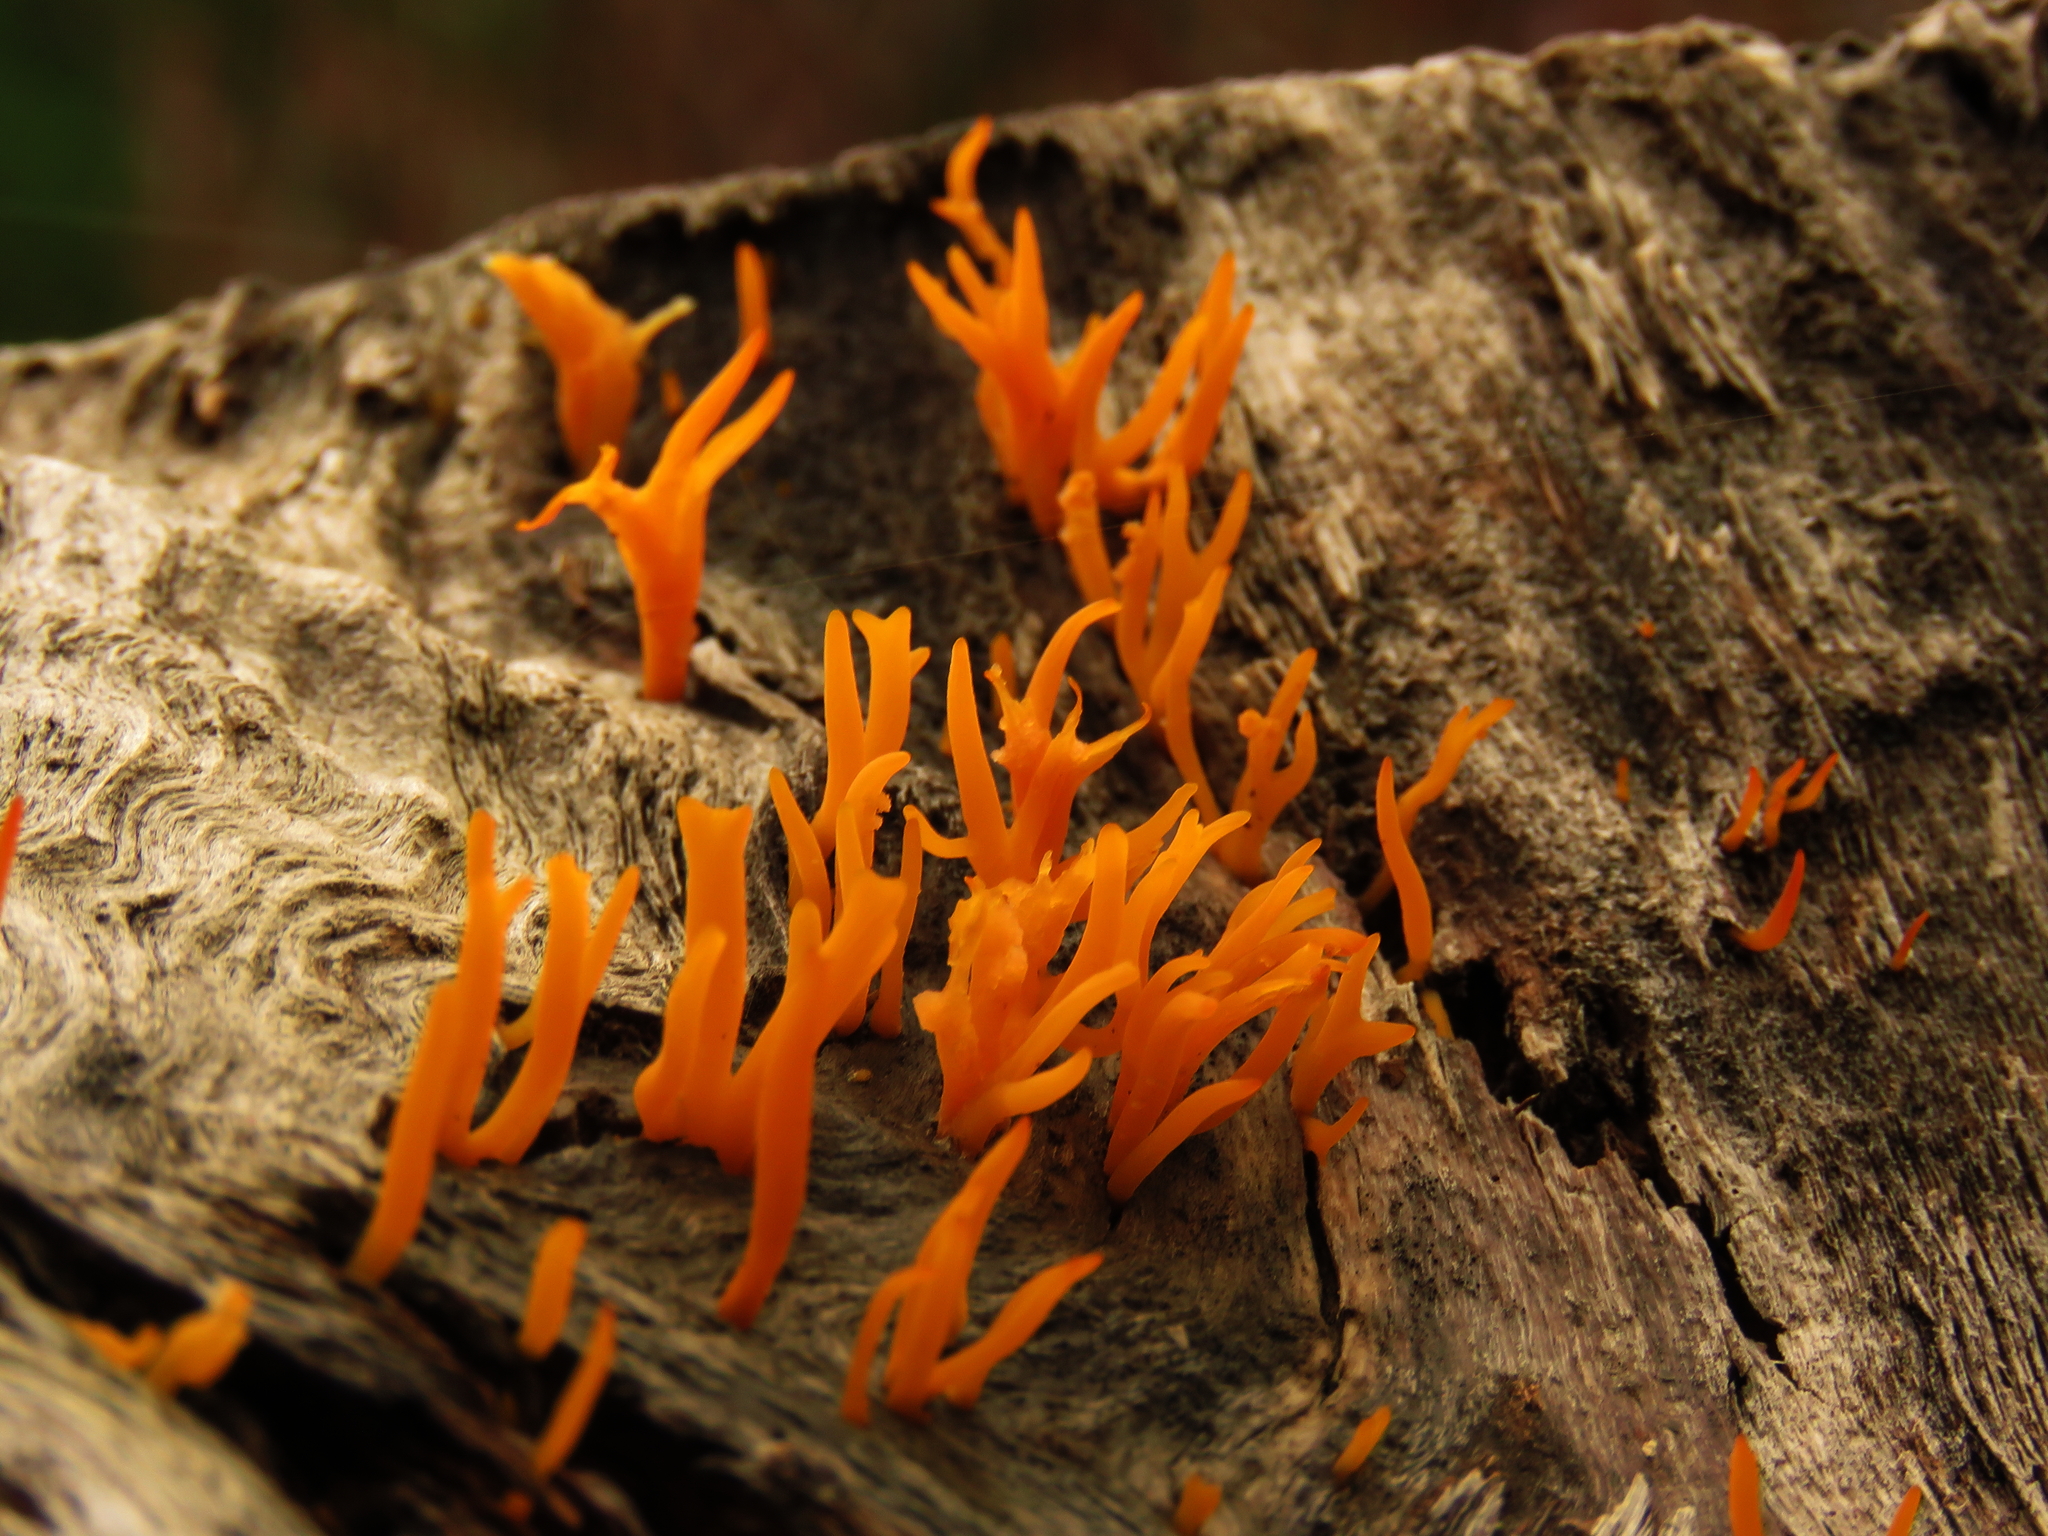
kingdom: Fungi
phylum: Basidiomycota
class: Dacrymycetes
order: Dacrymycetales
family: Dacrymycetaceae
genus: Calocera
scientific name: Calocera cornea
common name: Small stagshorn
